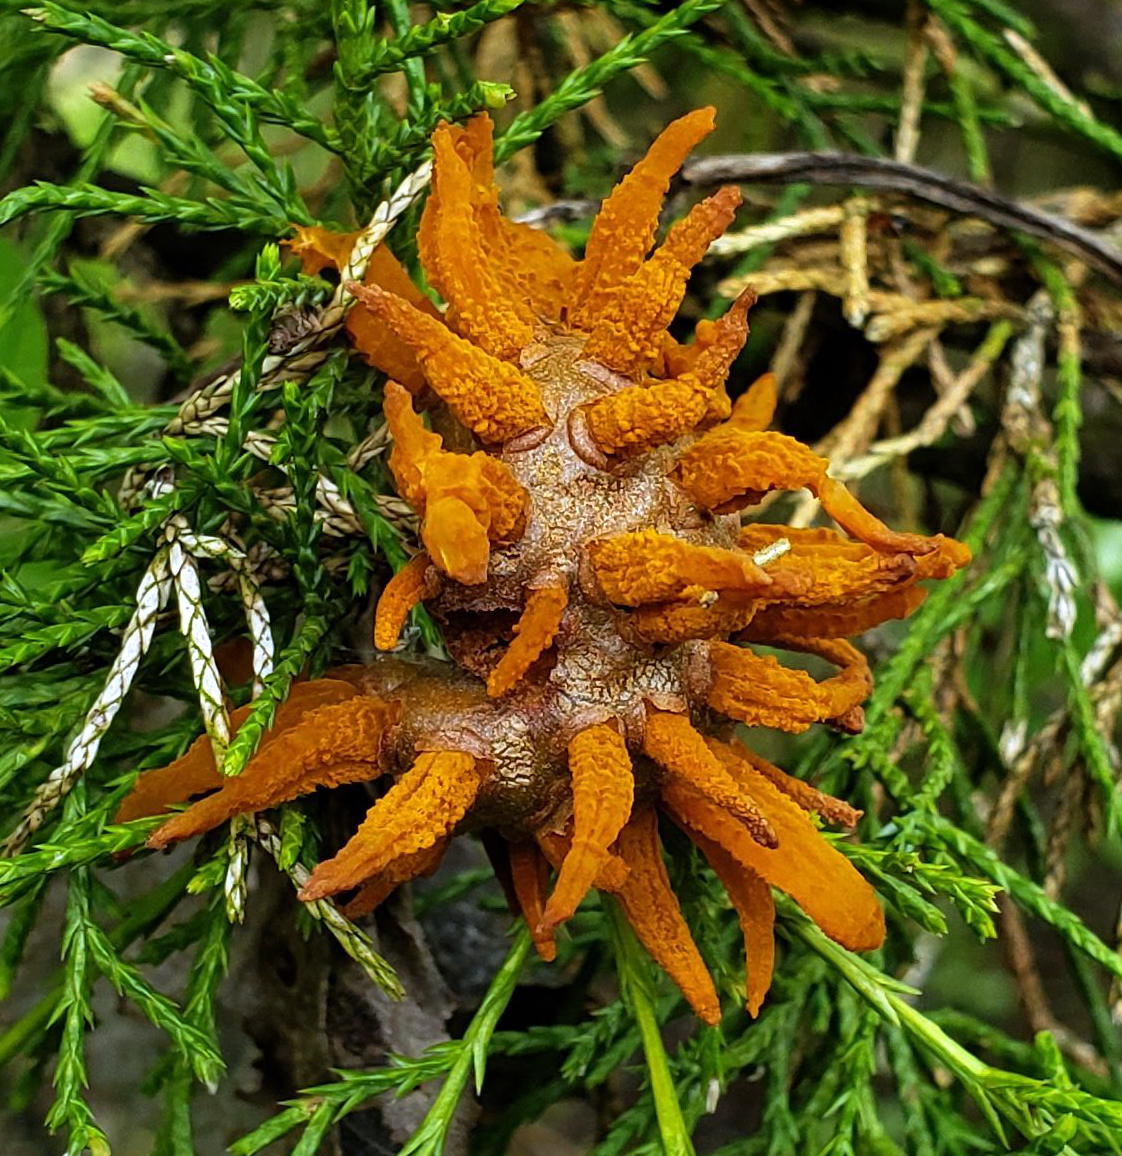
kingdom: Fungi
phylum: Basidiomycota
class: Pucciniomycetes
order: Pucciniales
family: Gymnosporangiaceae
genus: Gymnosporangium
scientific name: Gymnosporangium juniperi-virginianae
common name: Juniper-apple rust
